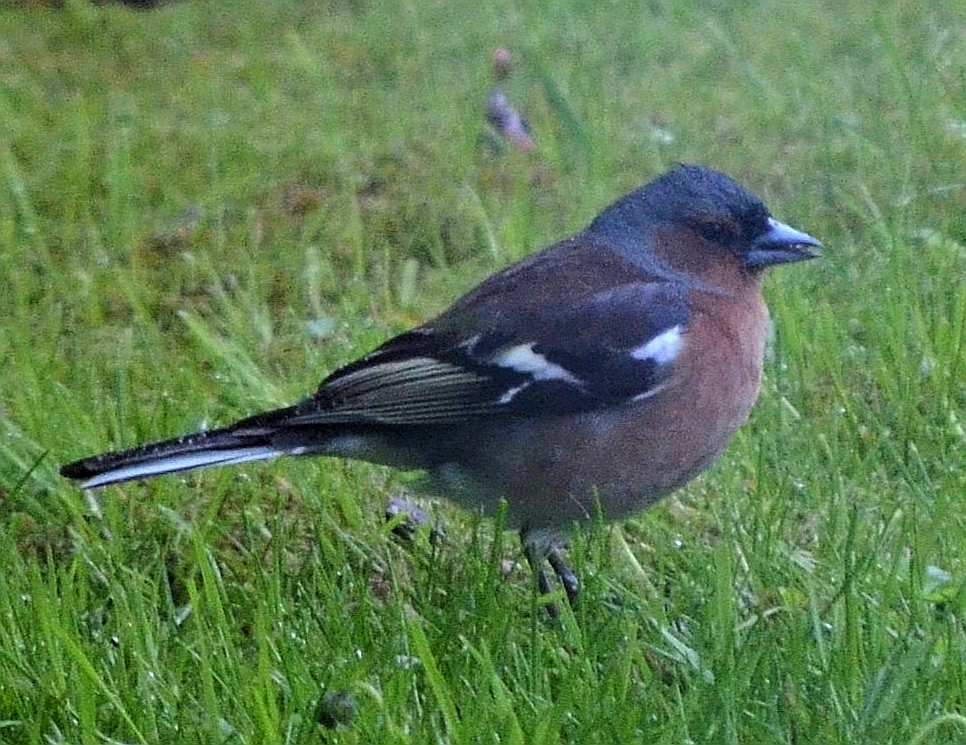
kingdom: Animalia
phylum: Chordata
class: Aves
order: Passeriformes
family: Fringillidae
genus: Fringilla
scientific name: Fringilla coelebs
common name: Common chaffinch
